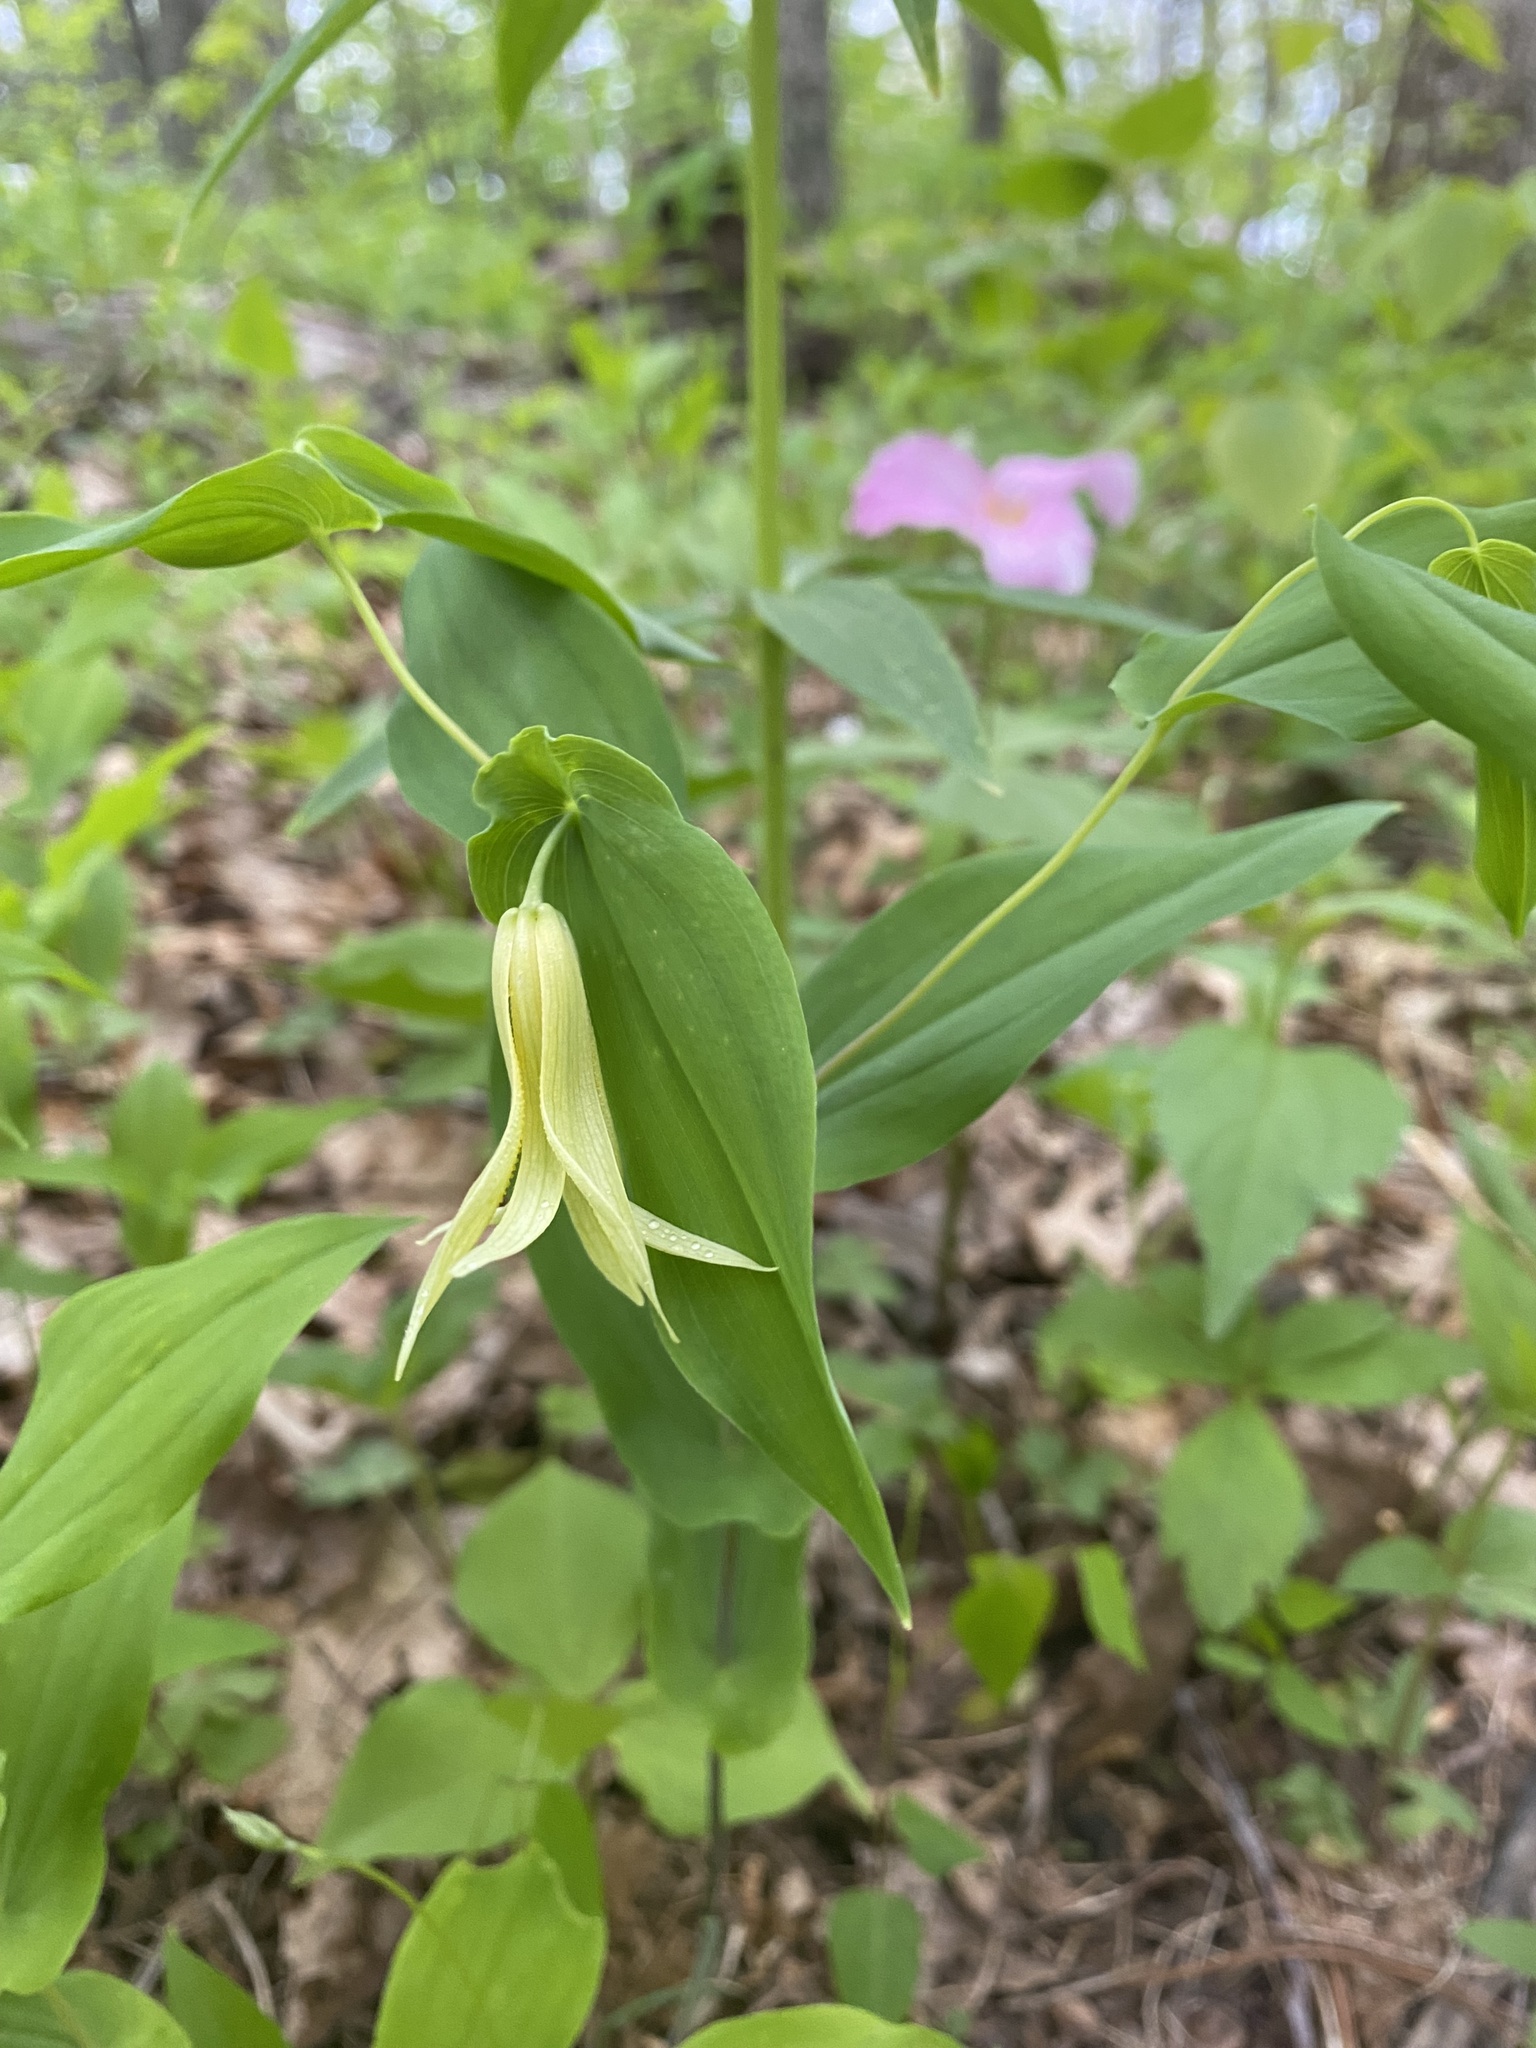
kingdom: Plantae
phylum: Tracheophyta
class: Liliopsida
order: Liliales
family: Colchicaceae
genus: Uvularia
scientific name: Uvularia perfoliata
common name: Perfoliate bellwort
